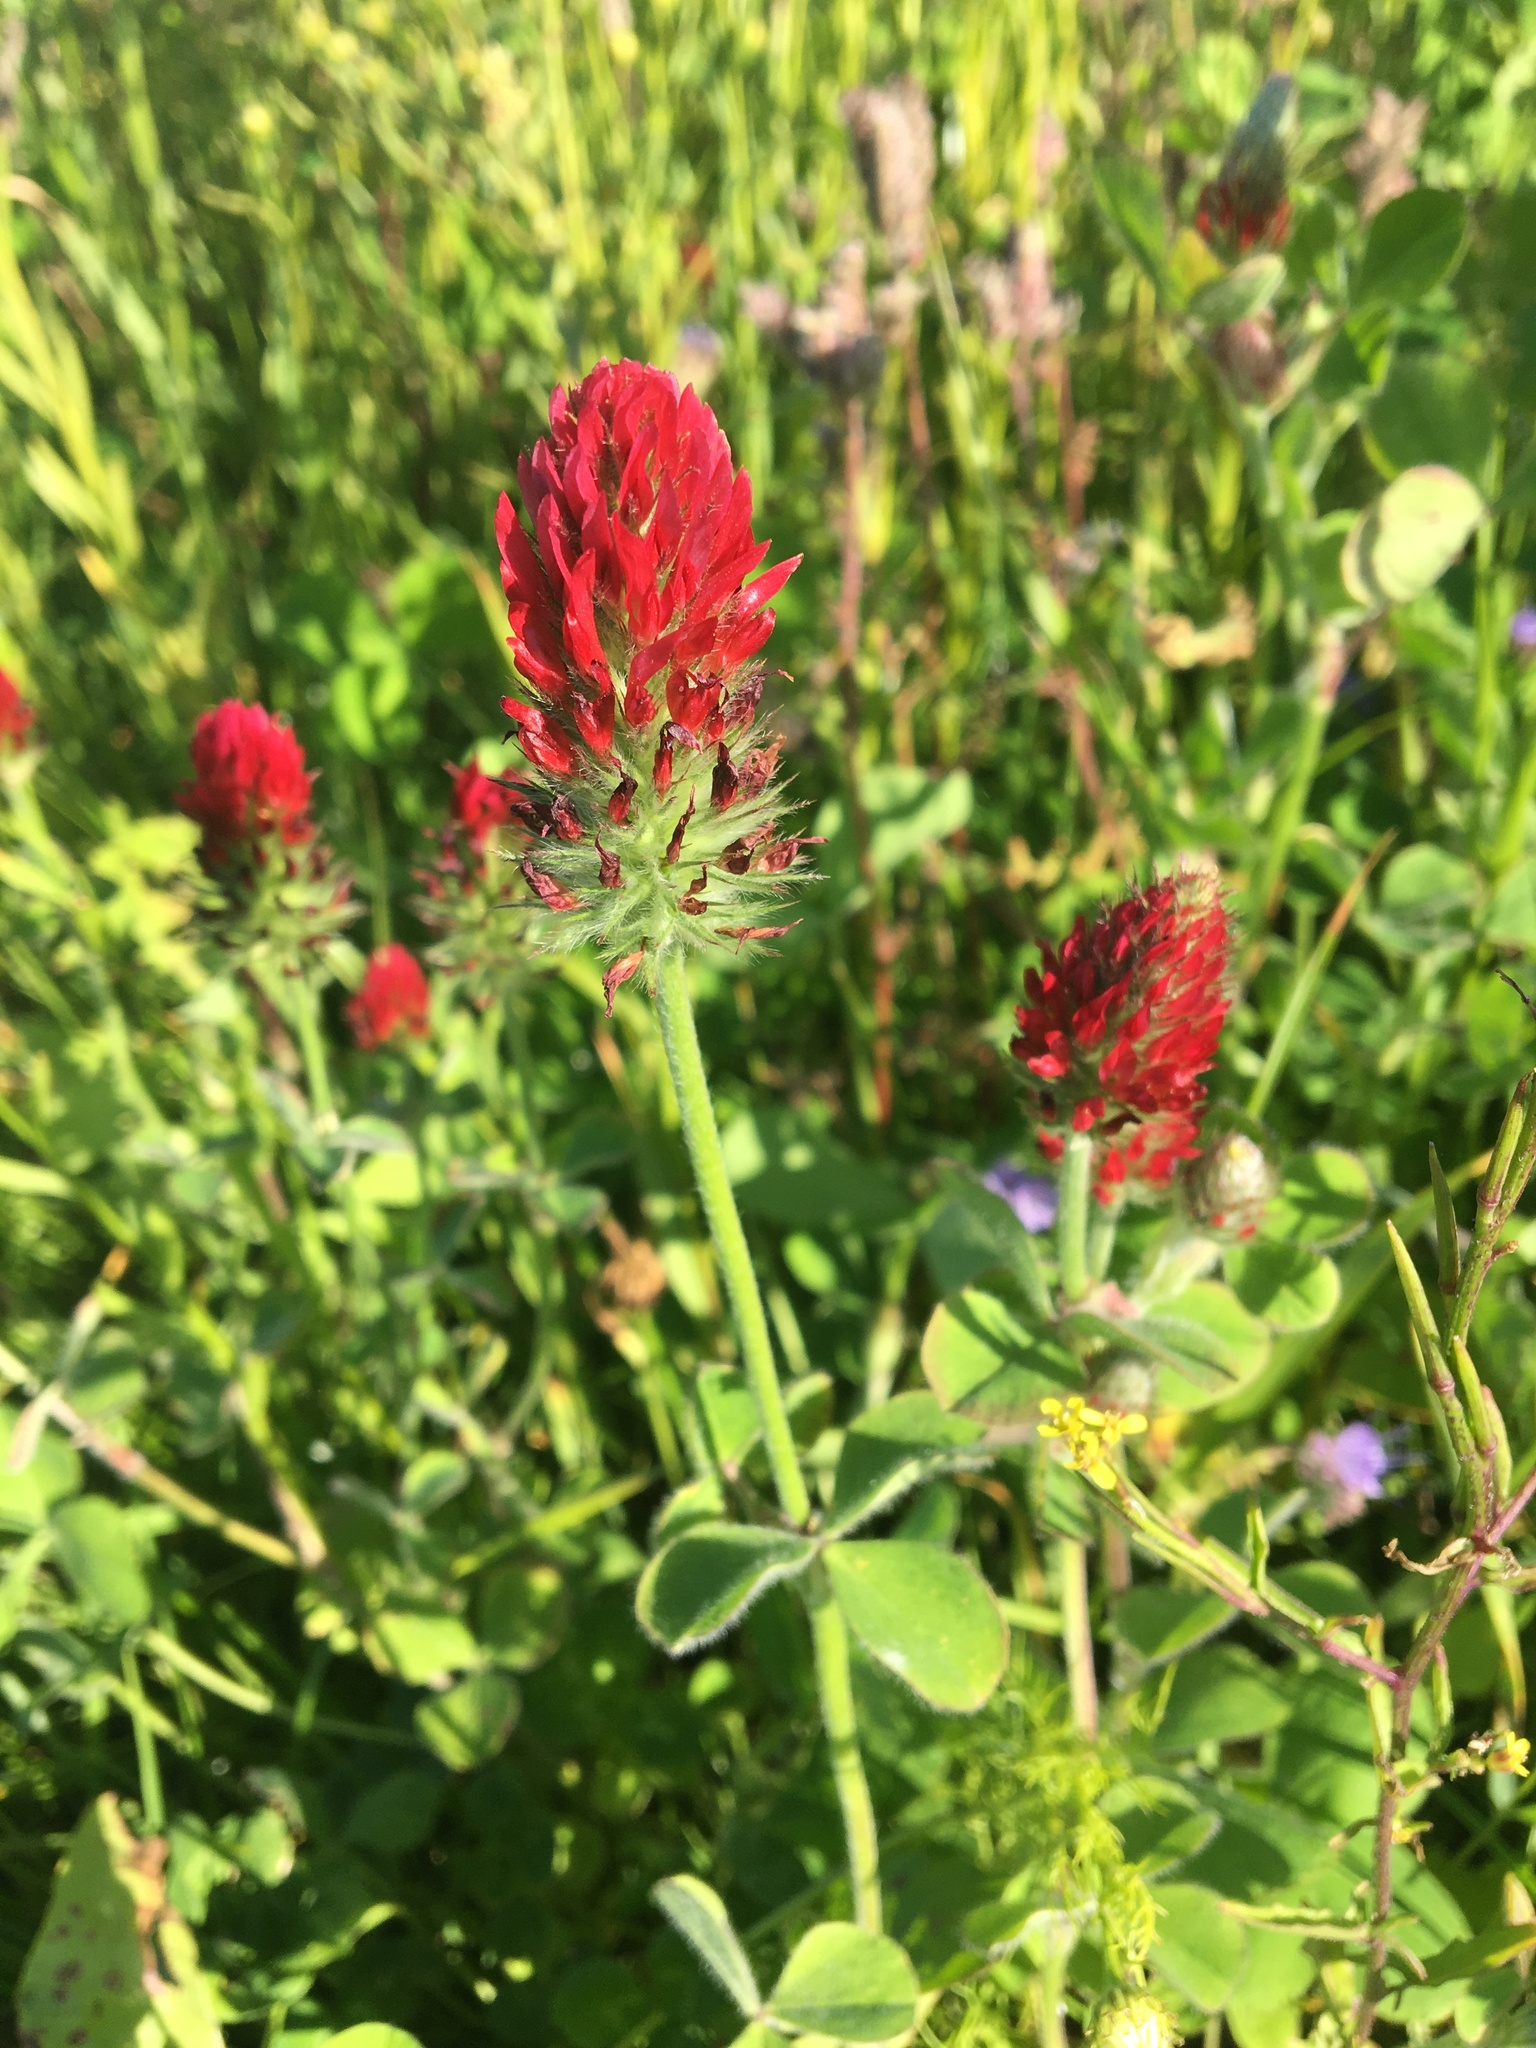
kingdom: Plantae
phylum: Tracheophyta
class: Magnoliopsida
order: Fabales
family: Fabaceae
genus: Trifolium
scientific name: Trifolium incarnatum
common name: Crimson clover
